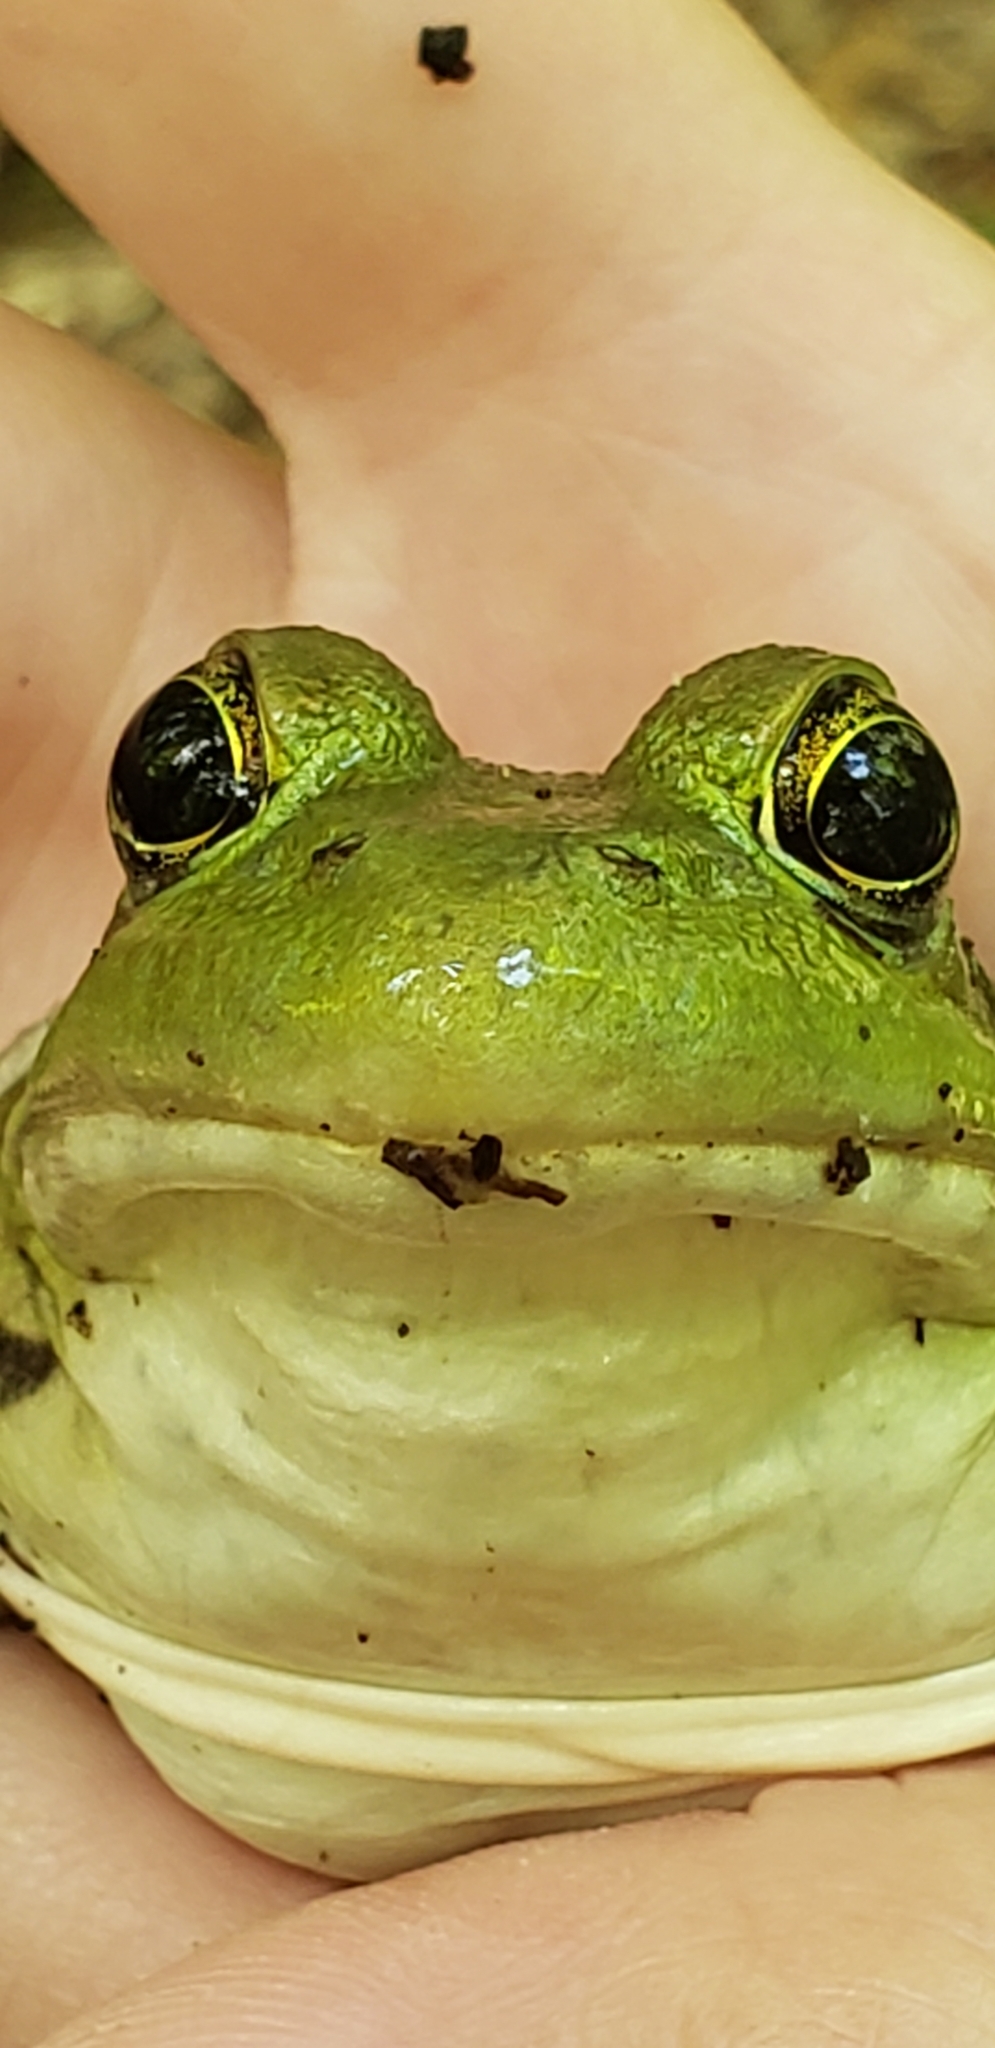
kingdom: Animalia
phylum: Chordata
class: Amphibia
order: Anura
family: Ranidae
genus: Lithobates
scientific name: Lithobates clamitans
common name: Green frog
